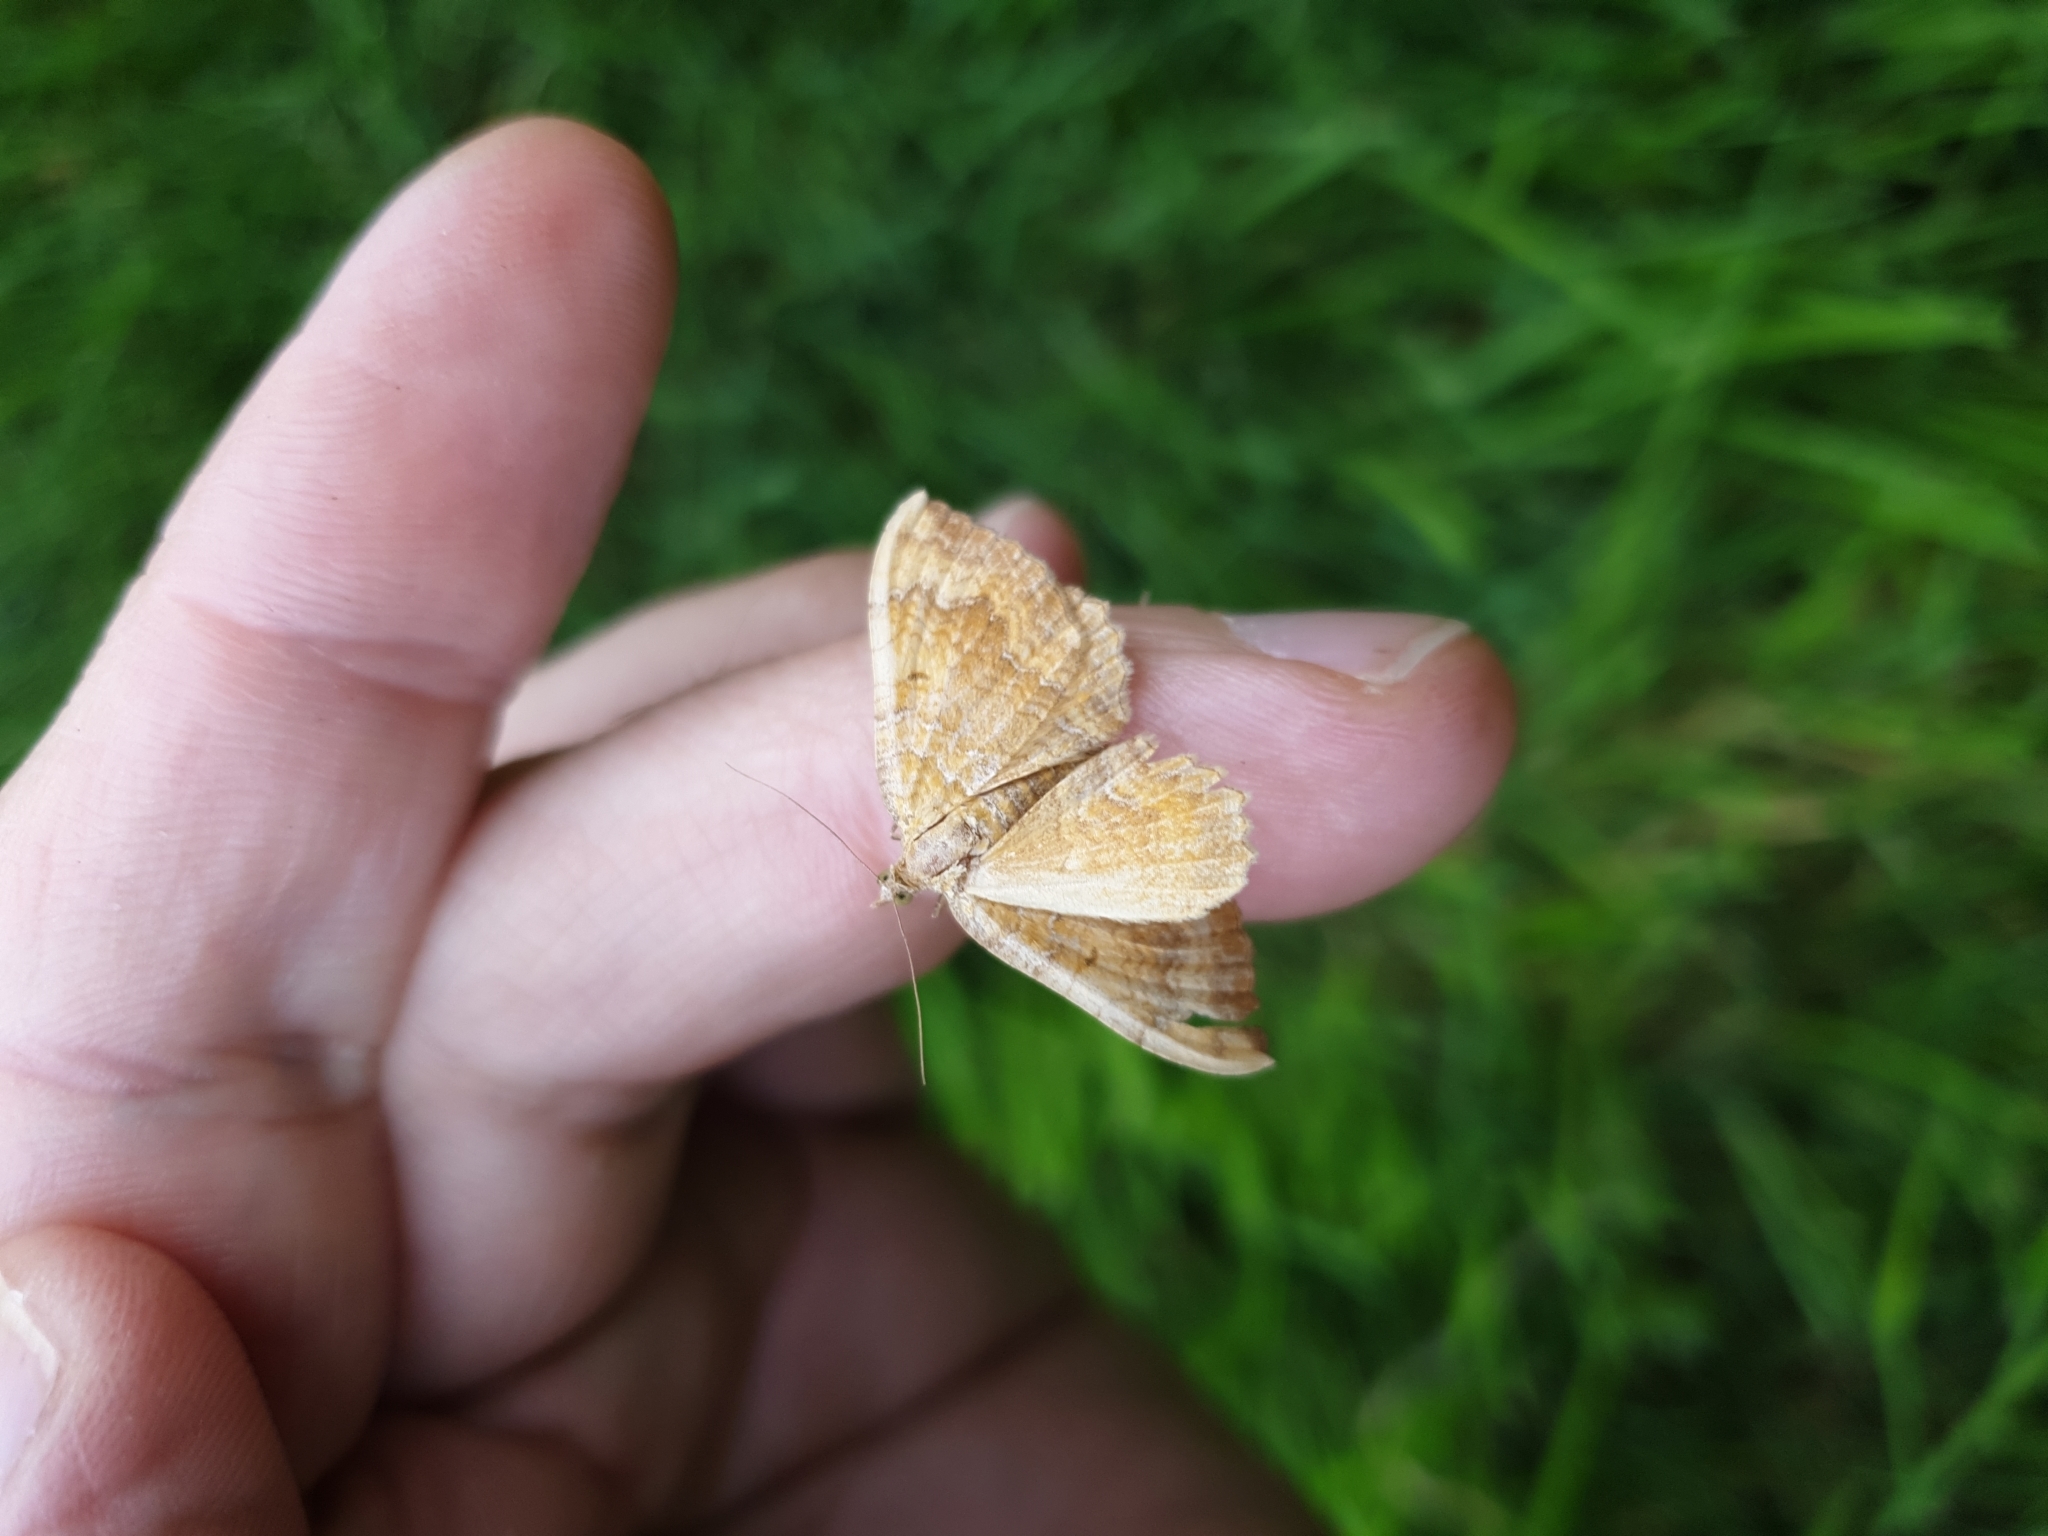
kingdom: Animalia
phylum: Arthropoda
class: Insecta
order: Lepidoptera
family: Geometridae
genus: Camptogramma
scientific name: Camptogramma bilineata
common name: Yellow shell
